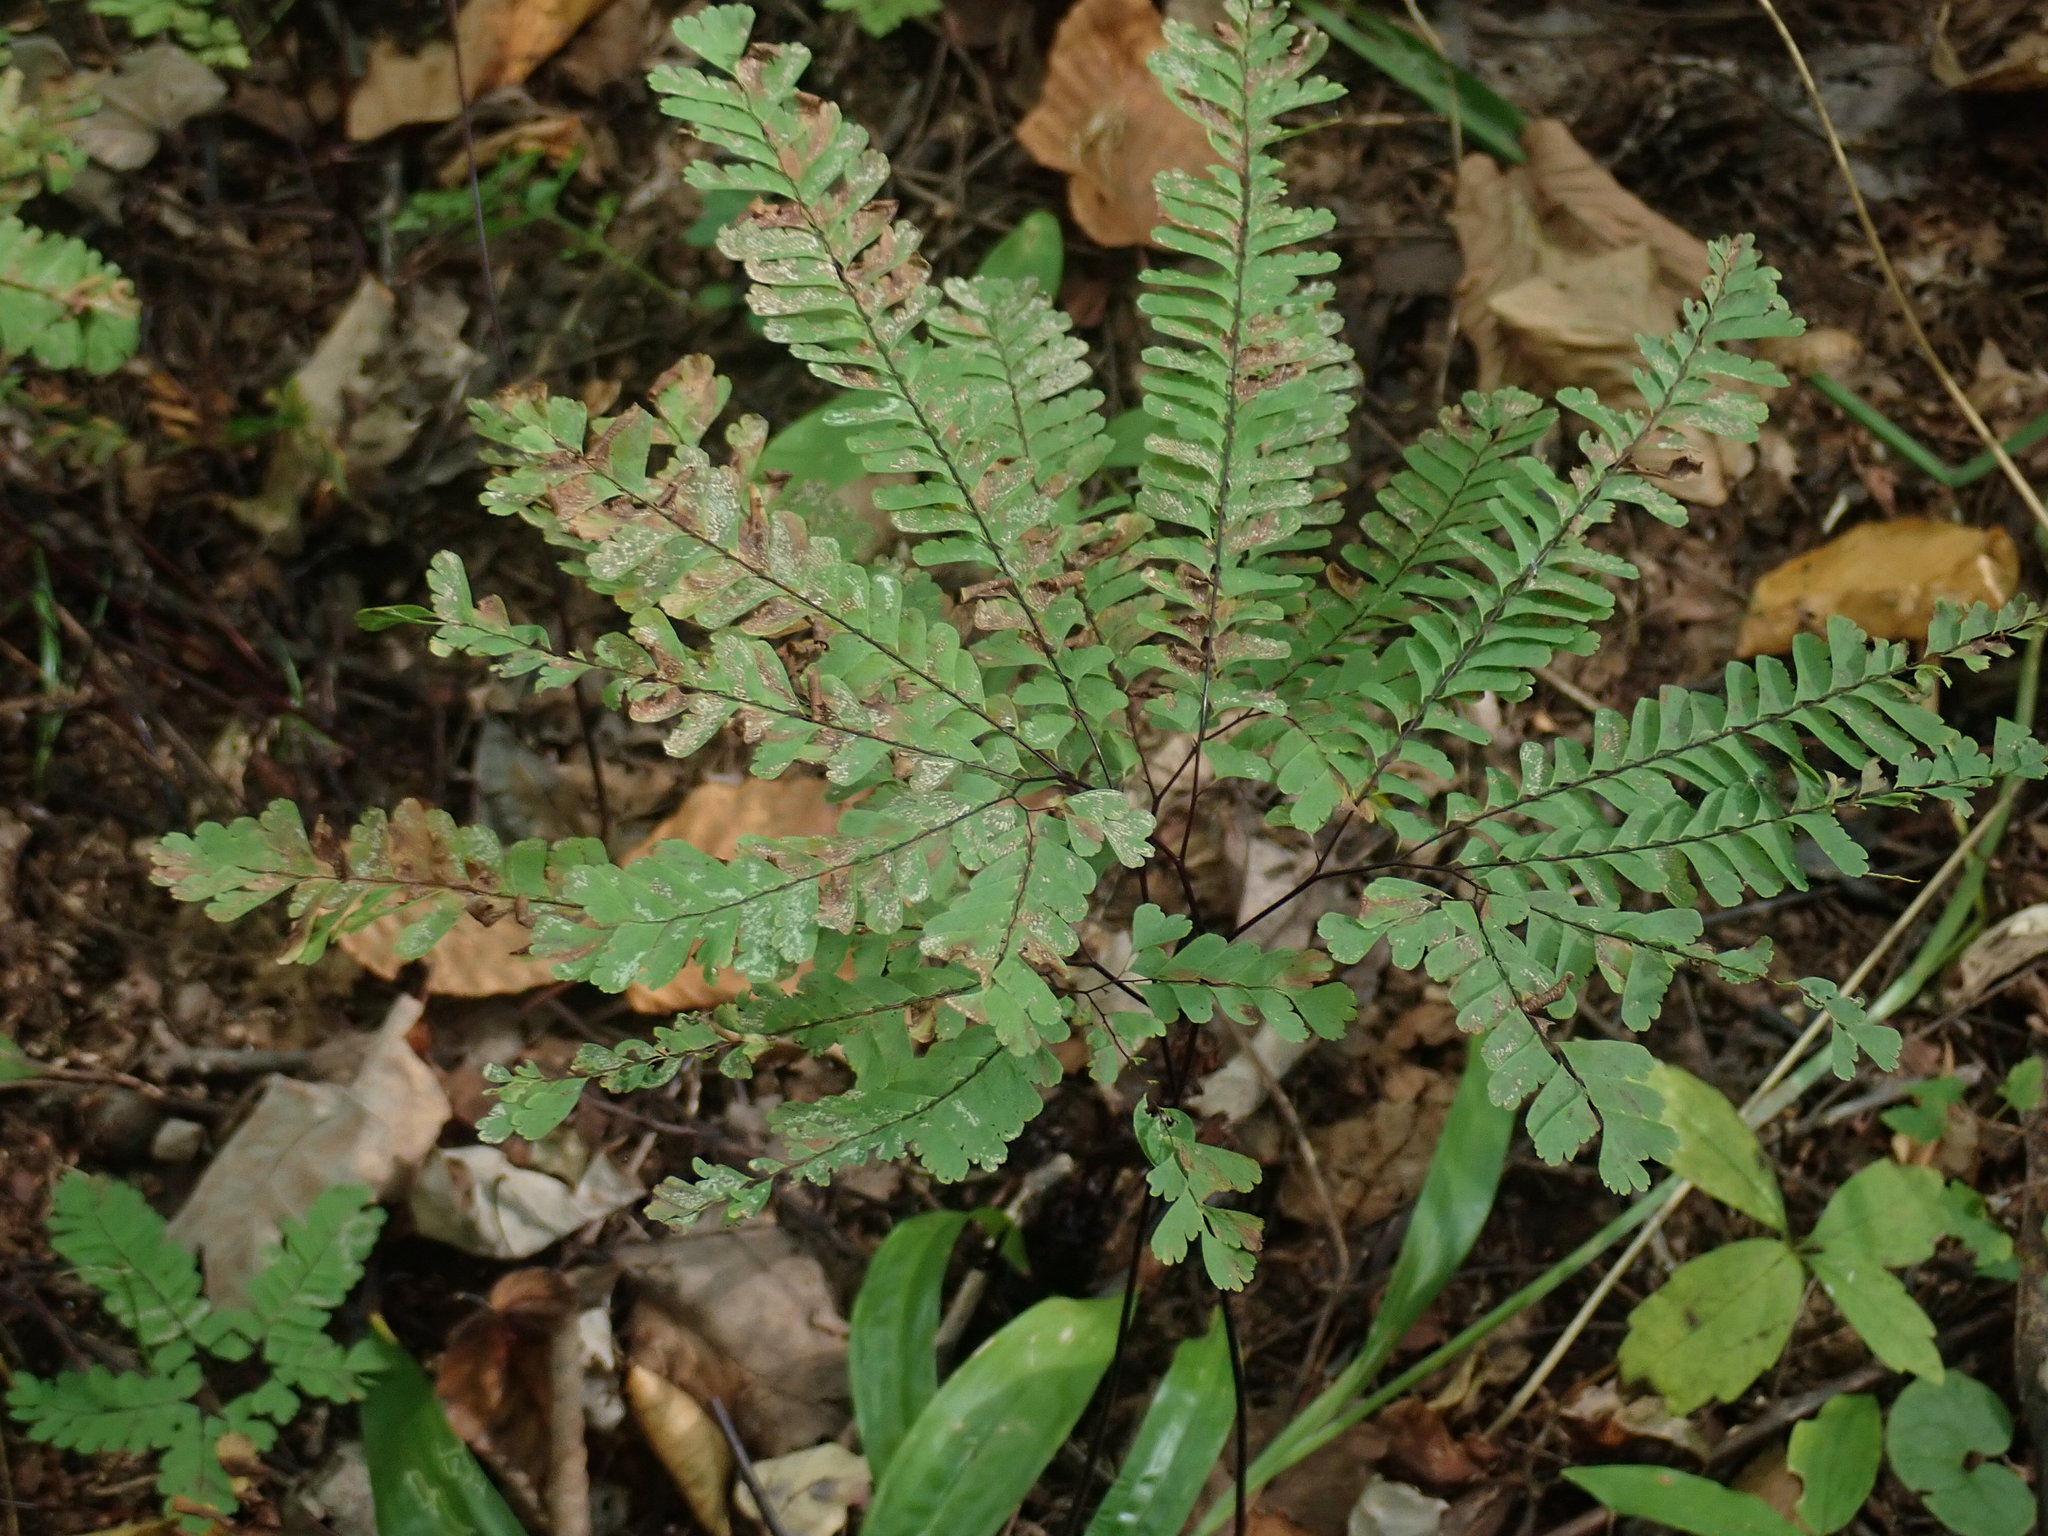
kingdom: Plantae
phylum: Tracheophyta
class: Polypodiopsida
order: Polypodiales
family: Pteridaceae
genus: Adiantum
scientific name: Adiantum pedatum
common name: Five-finger fern
